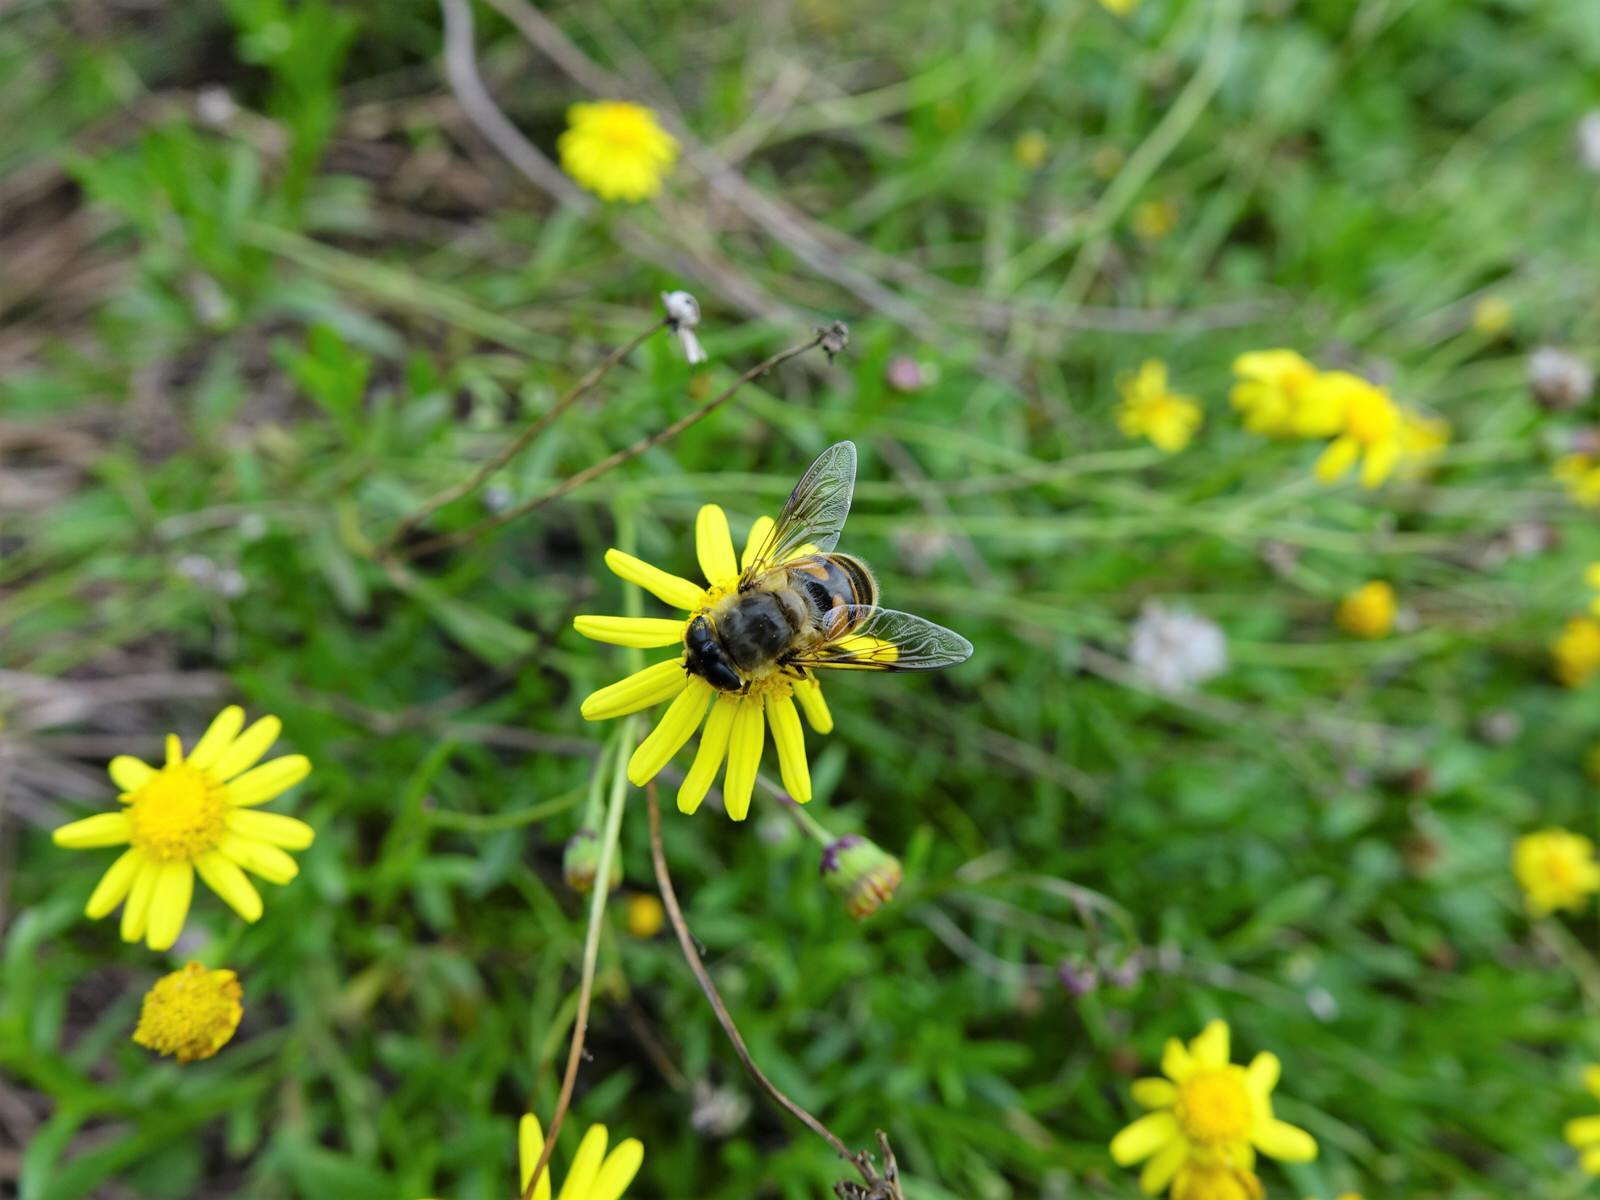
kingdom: Animalia
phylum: Arthropoda
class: Insecta
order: Diptera
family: Syrphidae
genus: Eristalis
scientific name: Eristalis tenax
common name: Drone fly
